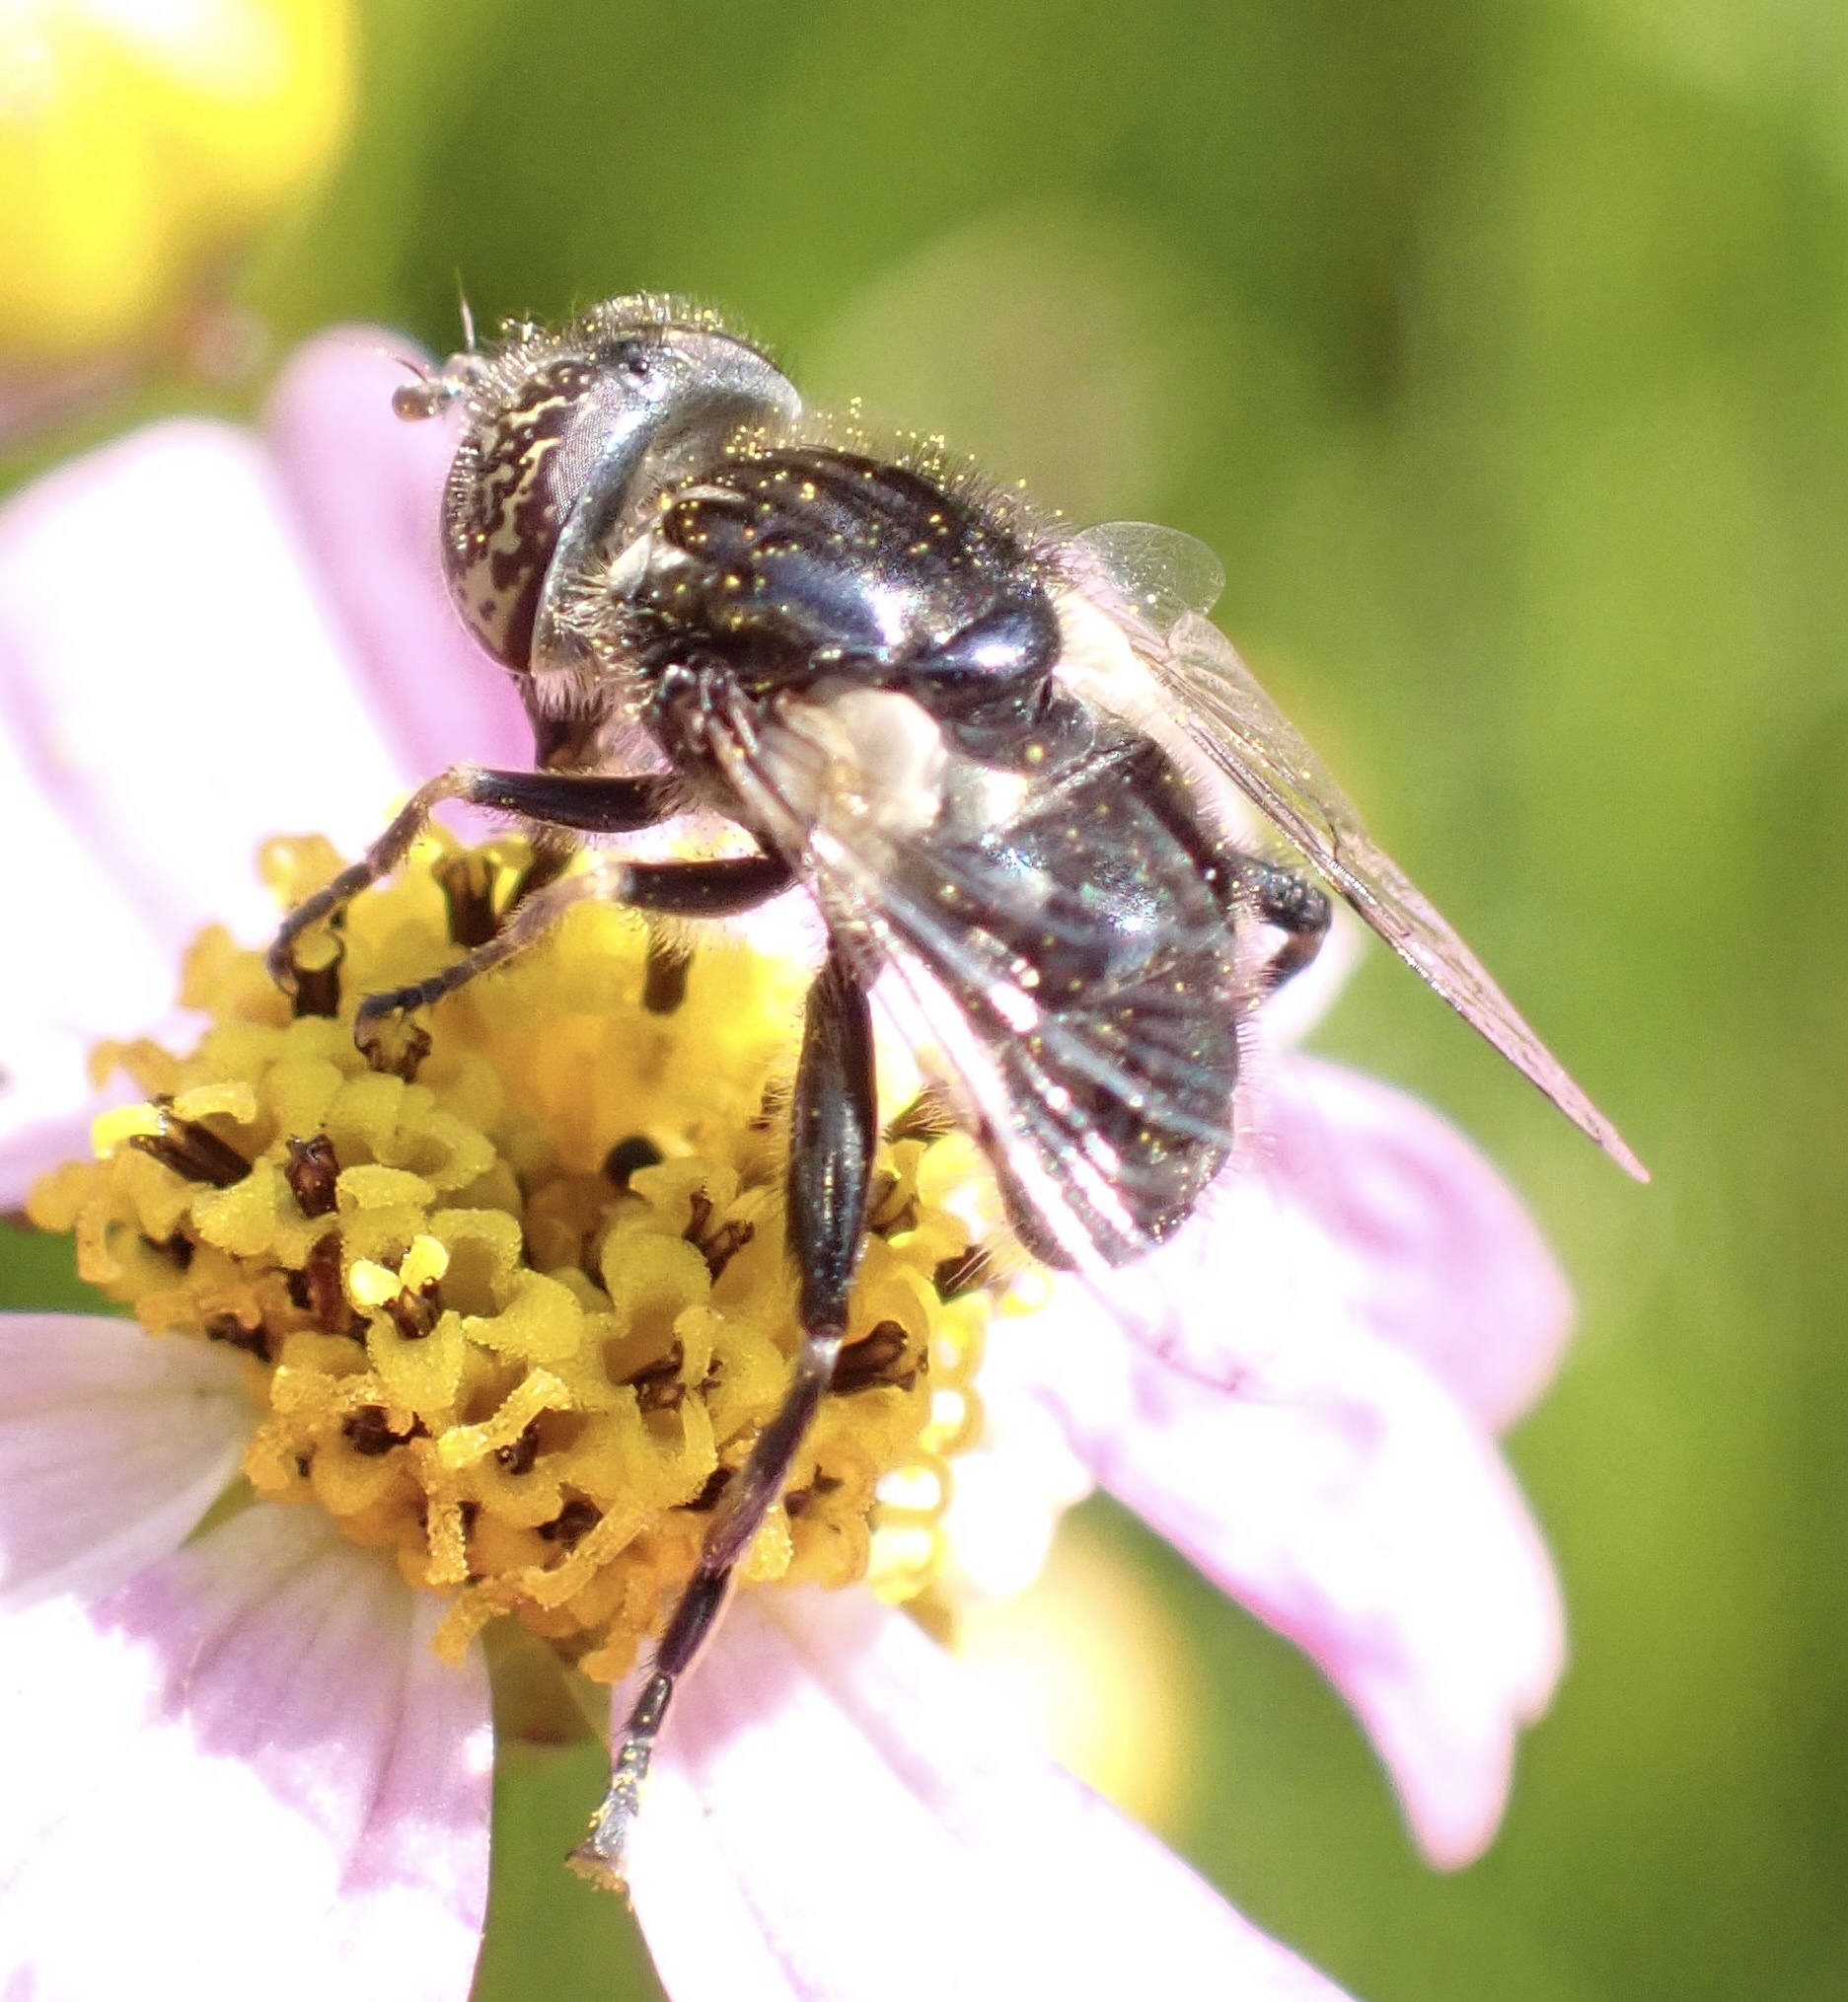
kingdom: Animalia
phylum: Arthropoda
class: Insecta
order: Diptera
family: Syrphidae
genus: Eristalinus
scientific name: Eristalinus sepulchralis
